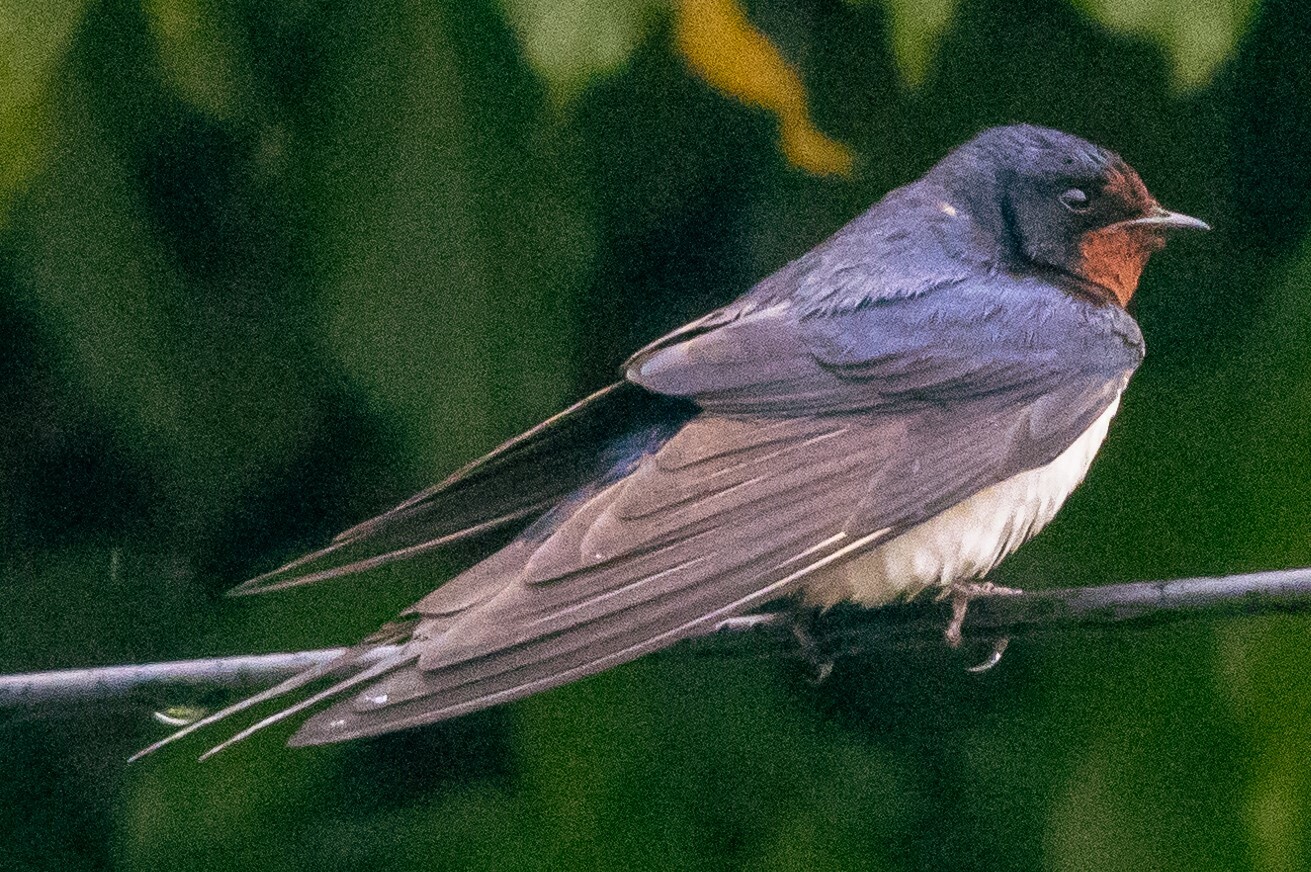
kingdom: Animalia
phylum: Chordata
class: Aves
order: Passeriformes
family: Hirundinidae
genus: Hirundo
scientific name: Hirundo rustica
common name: Barn swallow
